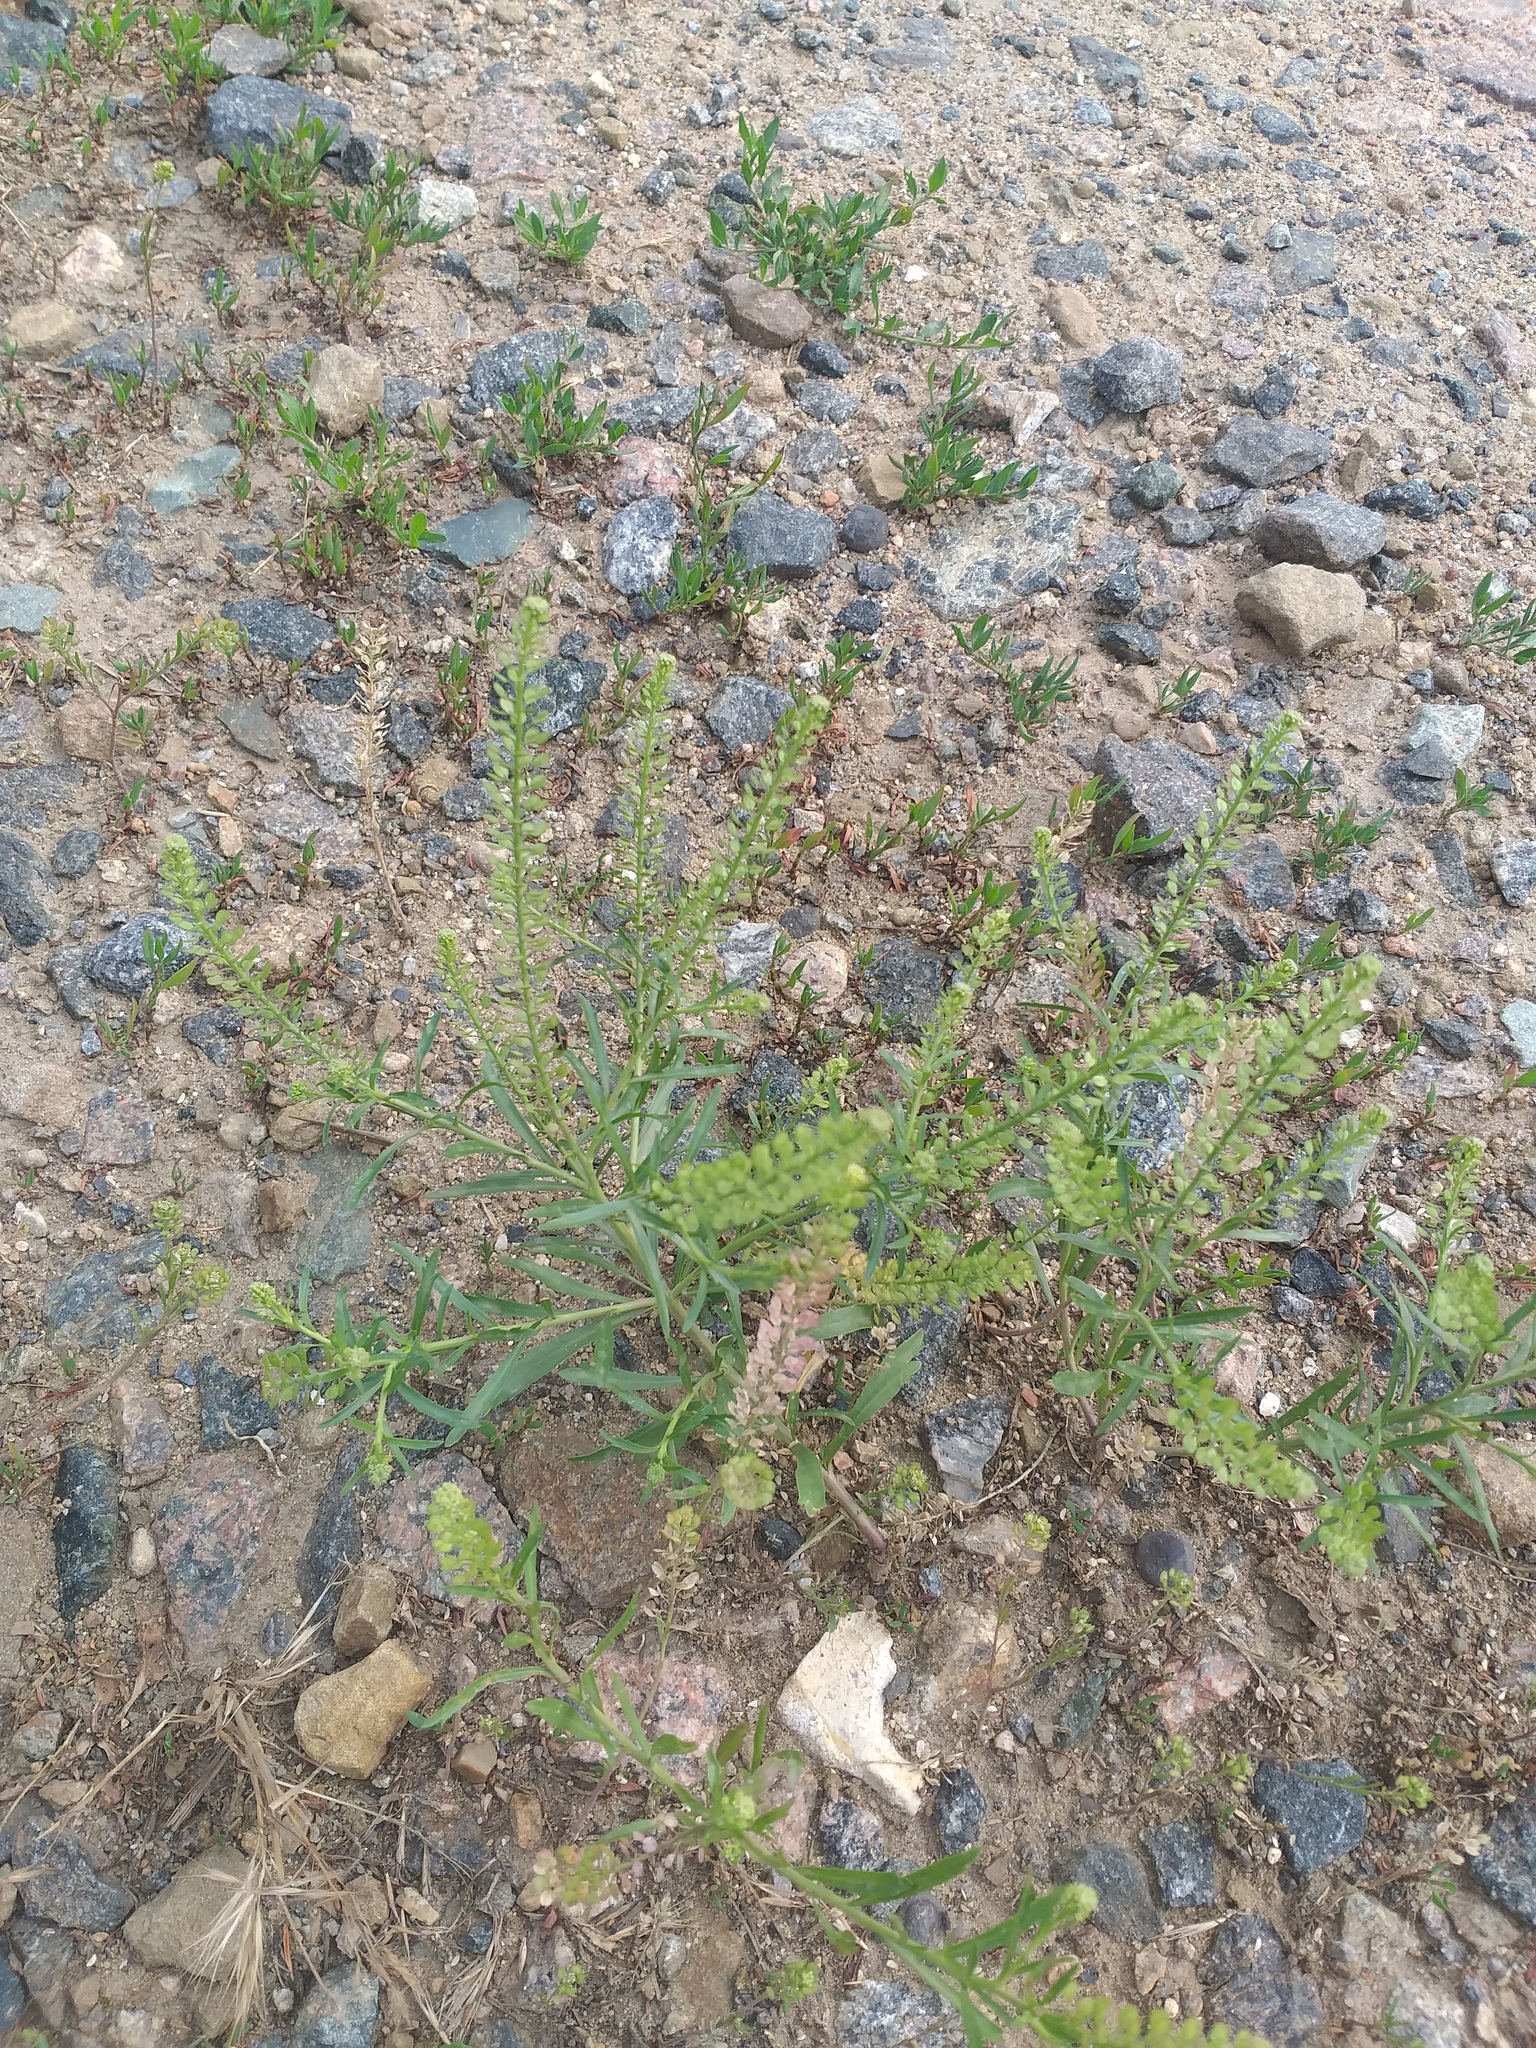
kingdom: Plantae
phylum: Tracheophyta
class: Magnoliopsida
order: Brassicales
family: Brassicaceae
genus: Lepidium
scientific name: Lepidium densiflorum
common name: Miner's pepperwort
